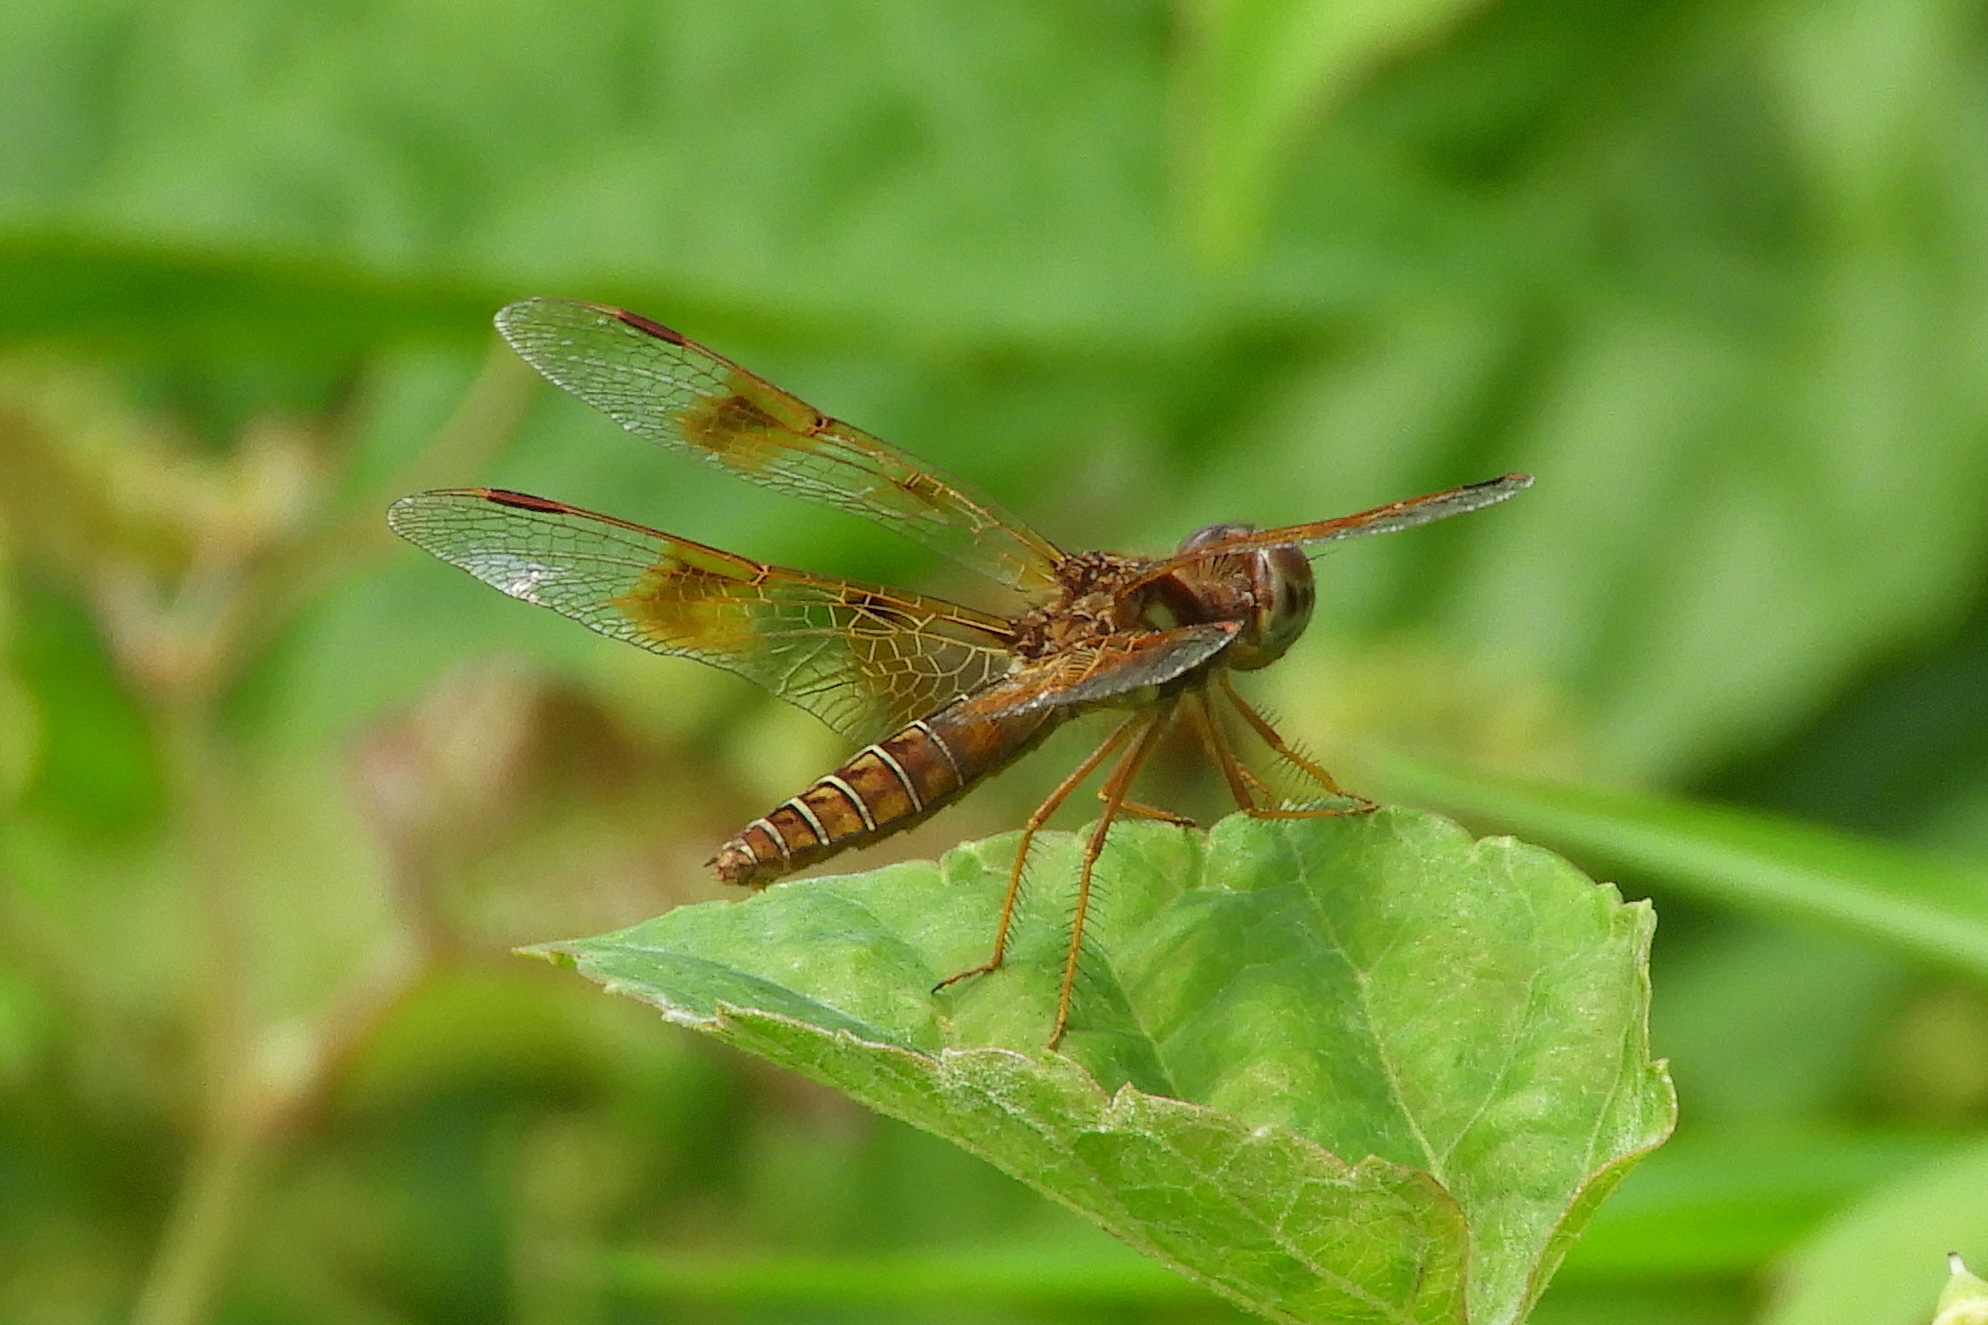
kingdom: Animalia
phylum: Arthropoda
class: Insecta
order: Odonata
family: Libellulidae
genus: Perithemis
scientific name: Perithemis tenera
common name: Eastern amberwing
